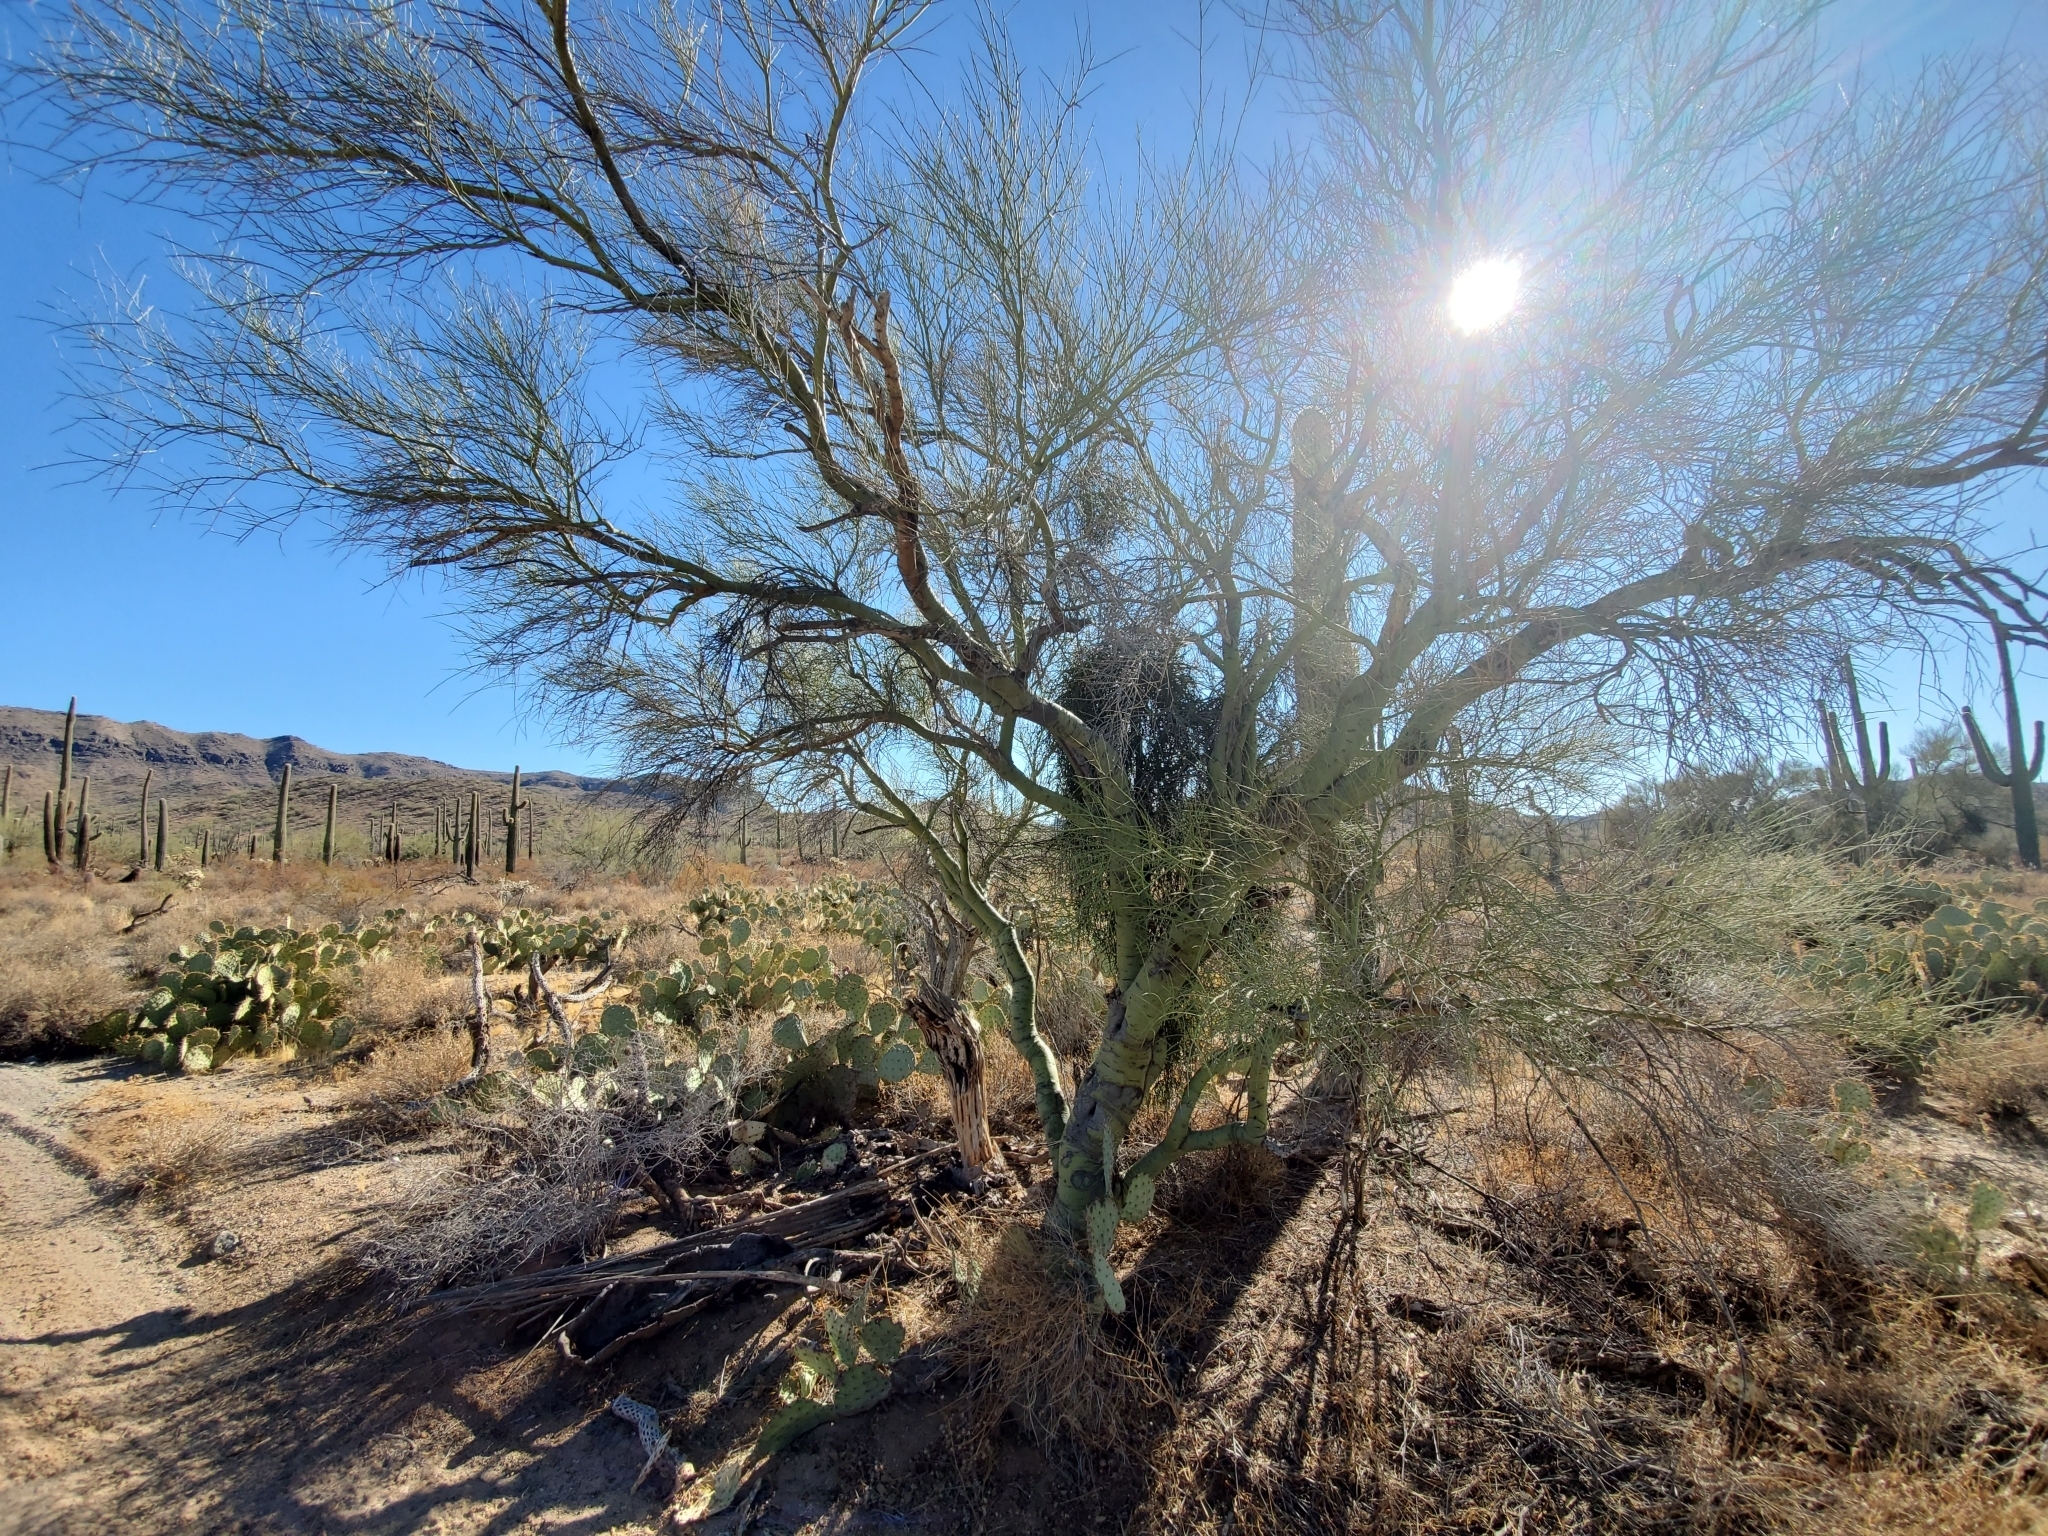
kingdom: Plantae
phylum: Tracheophyta
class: Magnoliopsida
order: Fabales
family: Fabaceae
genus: Parkinsonia
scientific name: Parkinsonia microphylla
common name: Yellow paloverde
